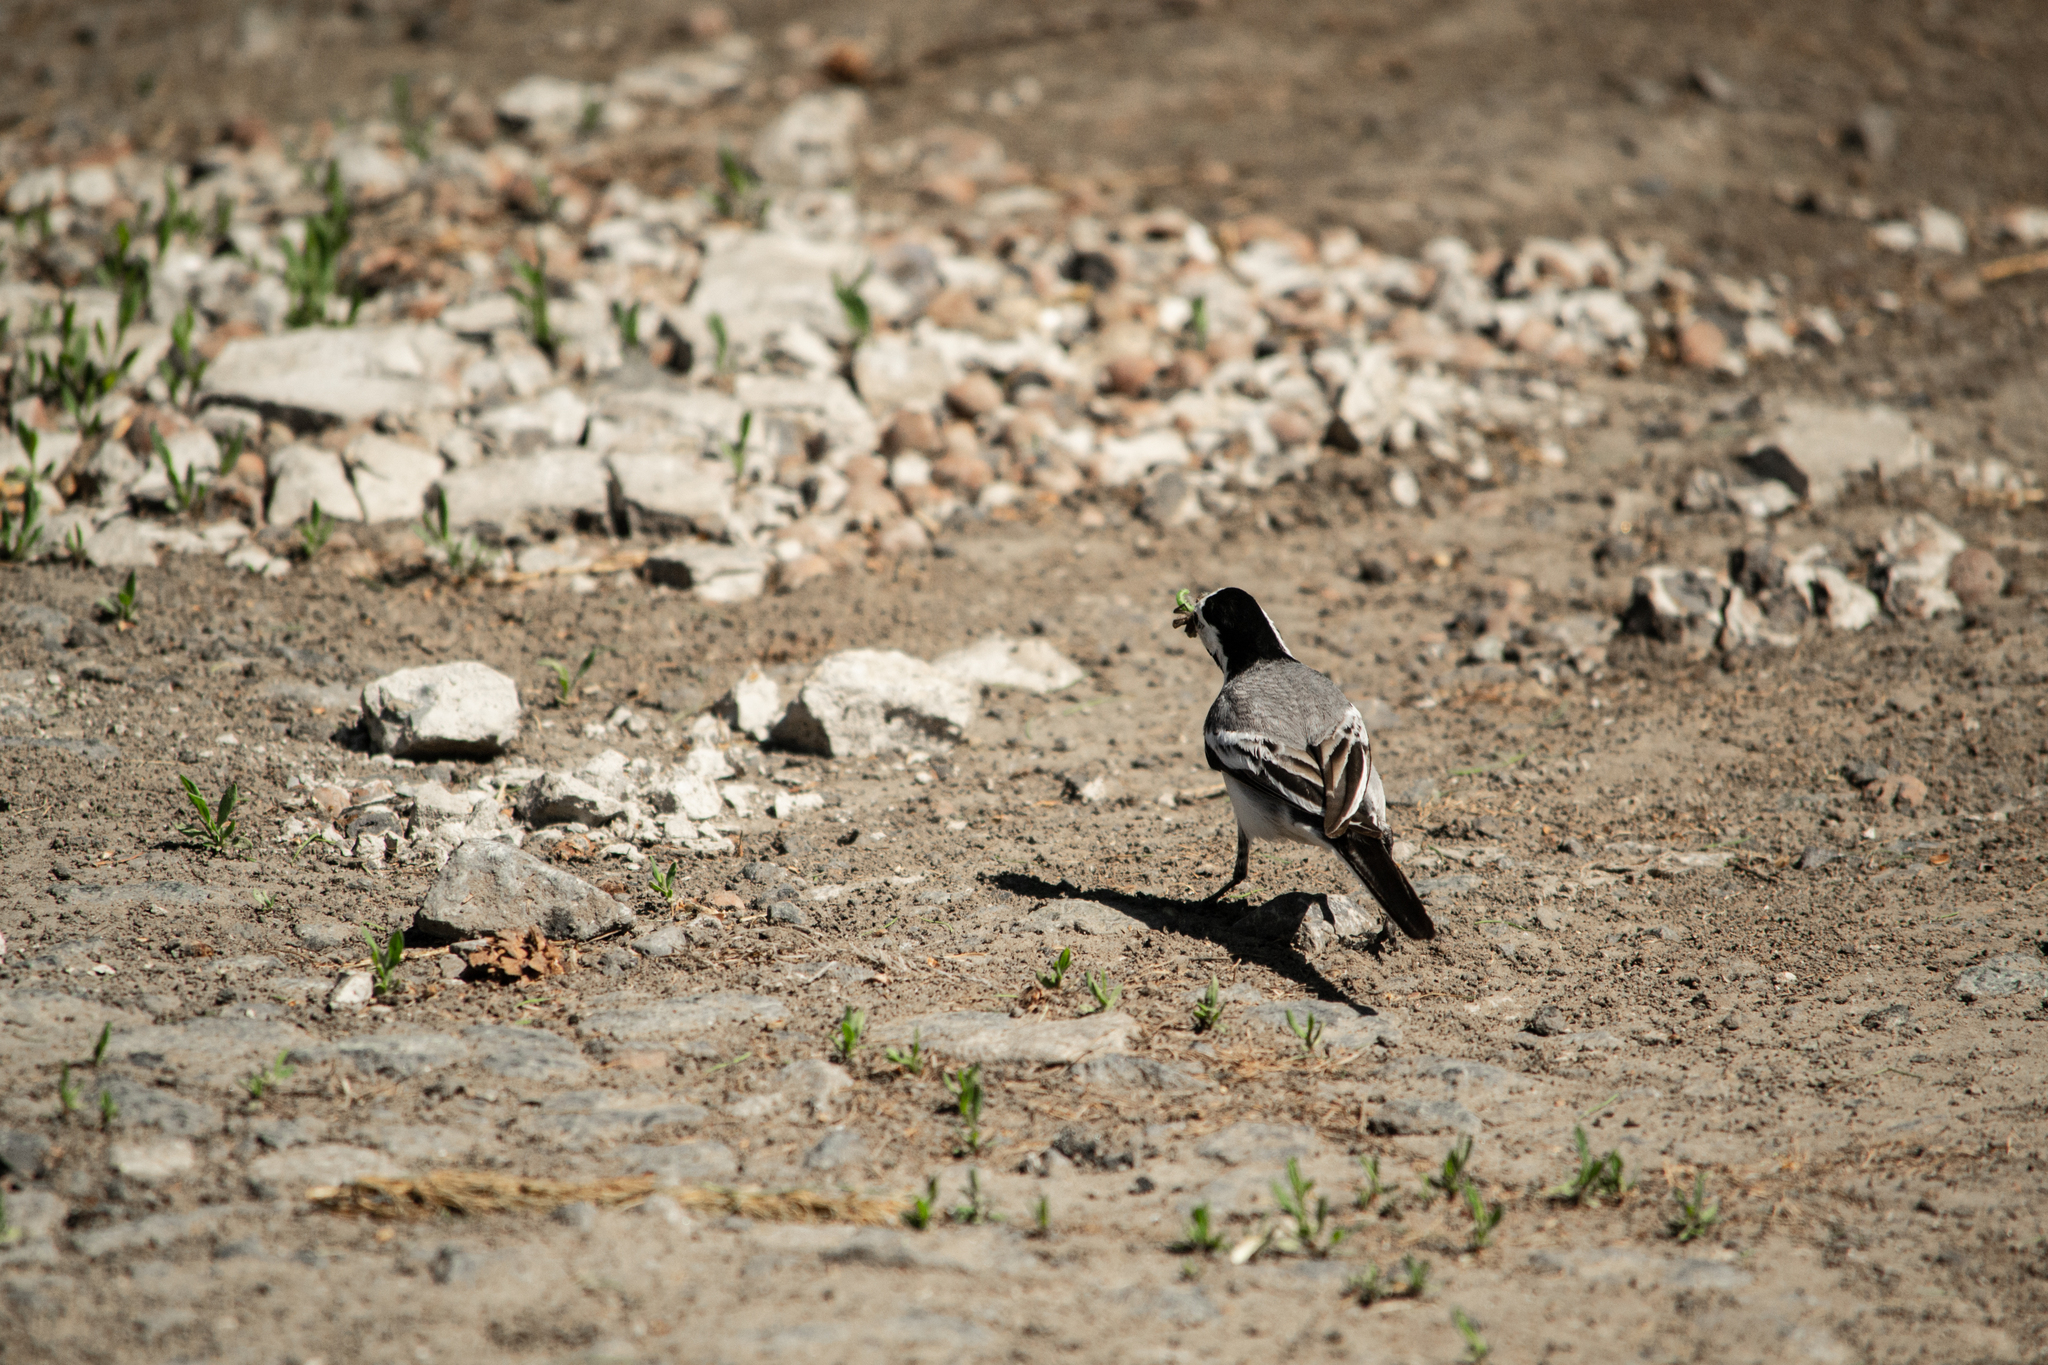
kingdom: Animalia
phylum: Chordata
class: Aves
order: Passeriformes
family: Motacillidae
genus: Motacilla
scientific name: Motacilla alba
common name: White wagtail
